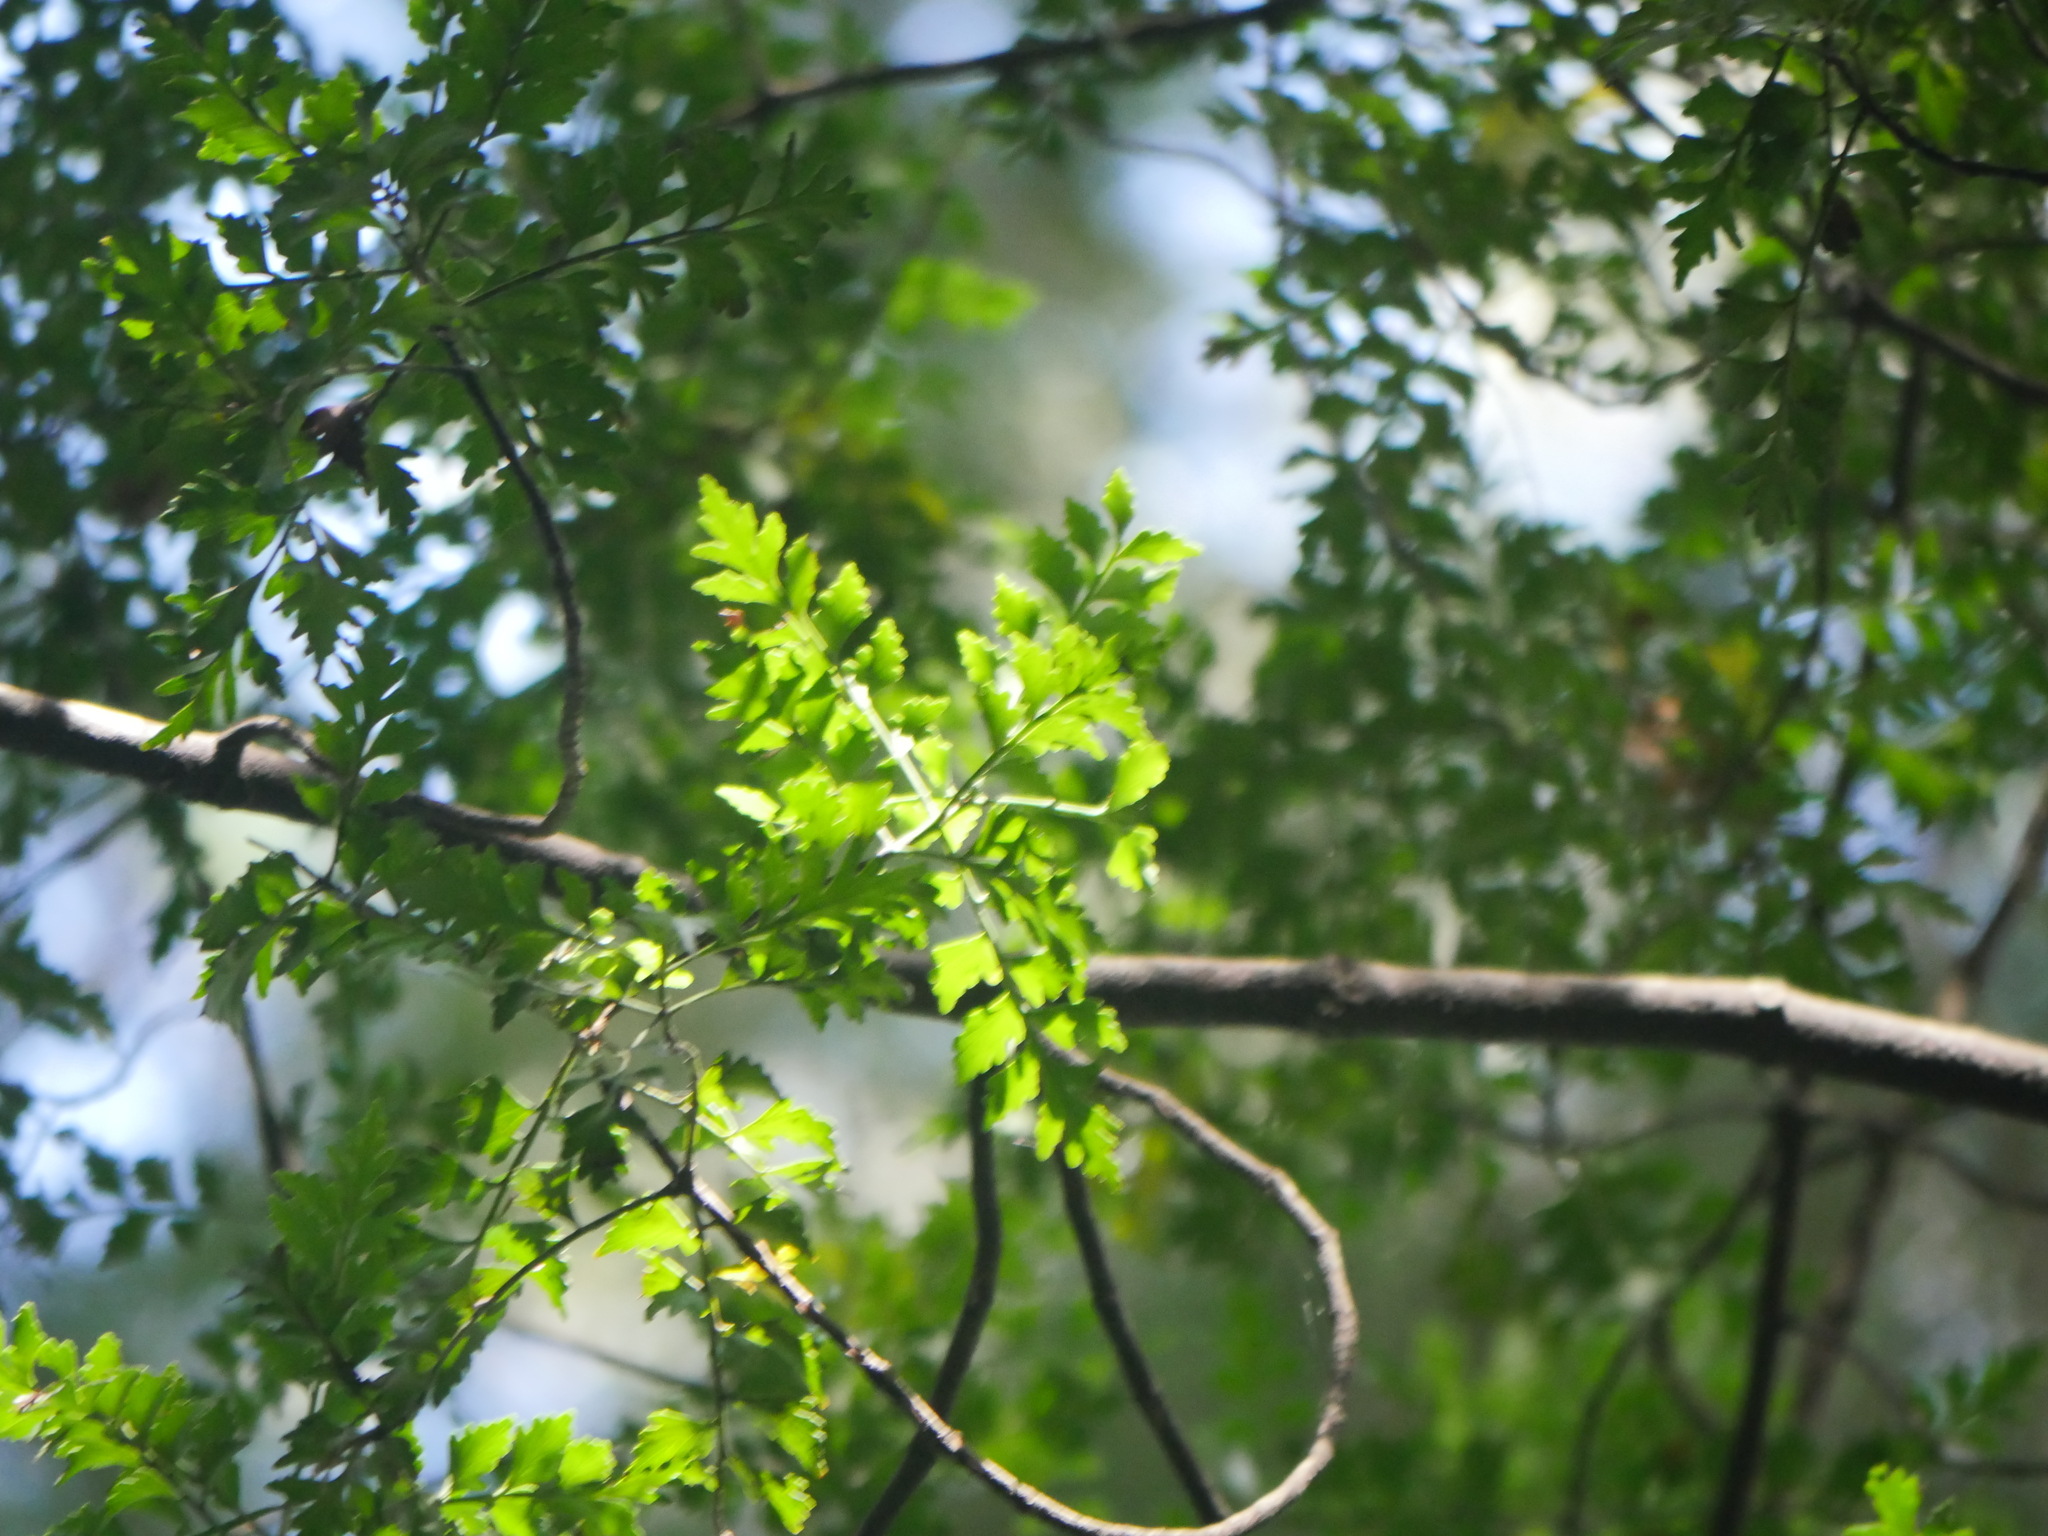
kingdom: Plantae
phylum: Tracheophyta
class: Pinopsida
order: Pinales
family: Phyllocladaceae
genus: Phyllocladus
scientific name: Phyllocladus trichomanoides
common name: Celery pine
